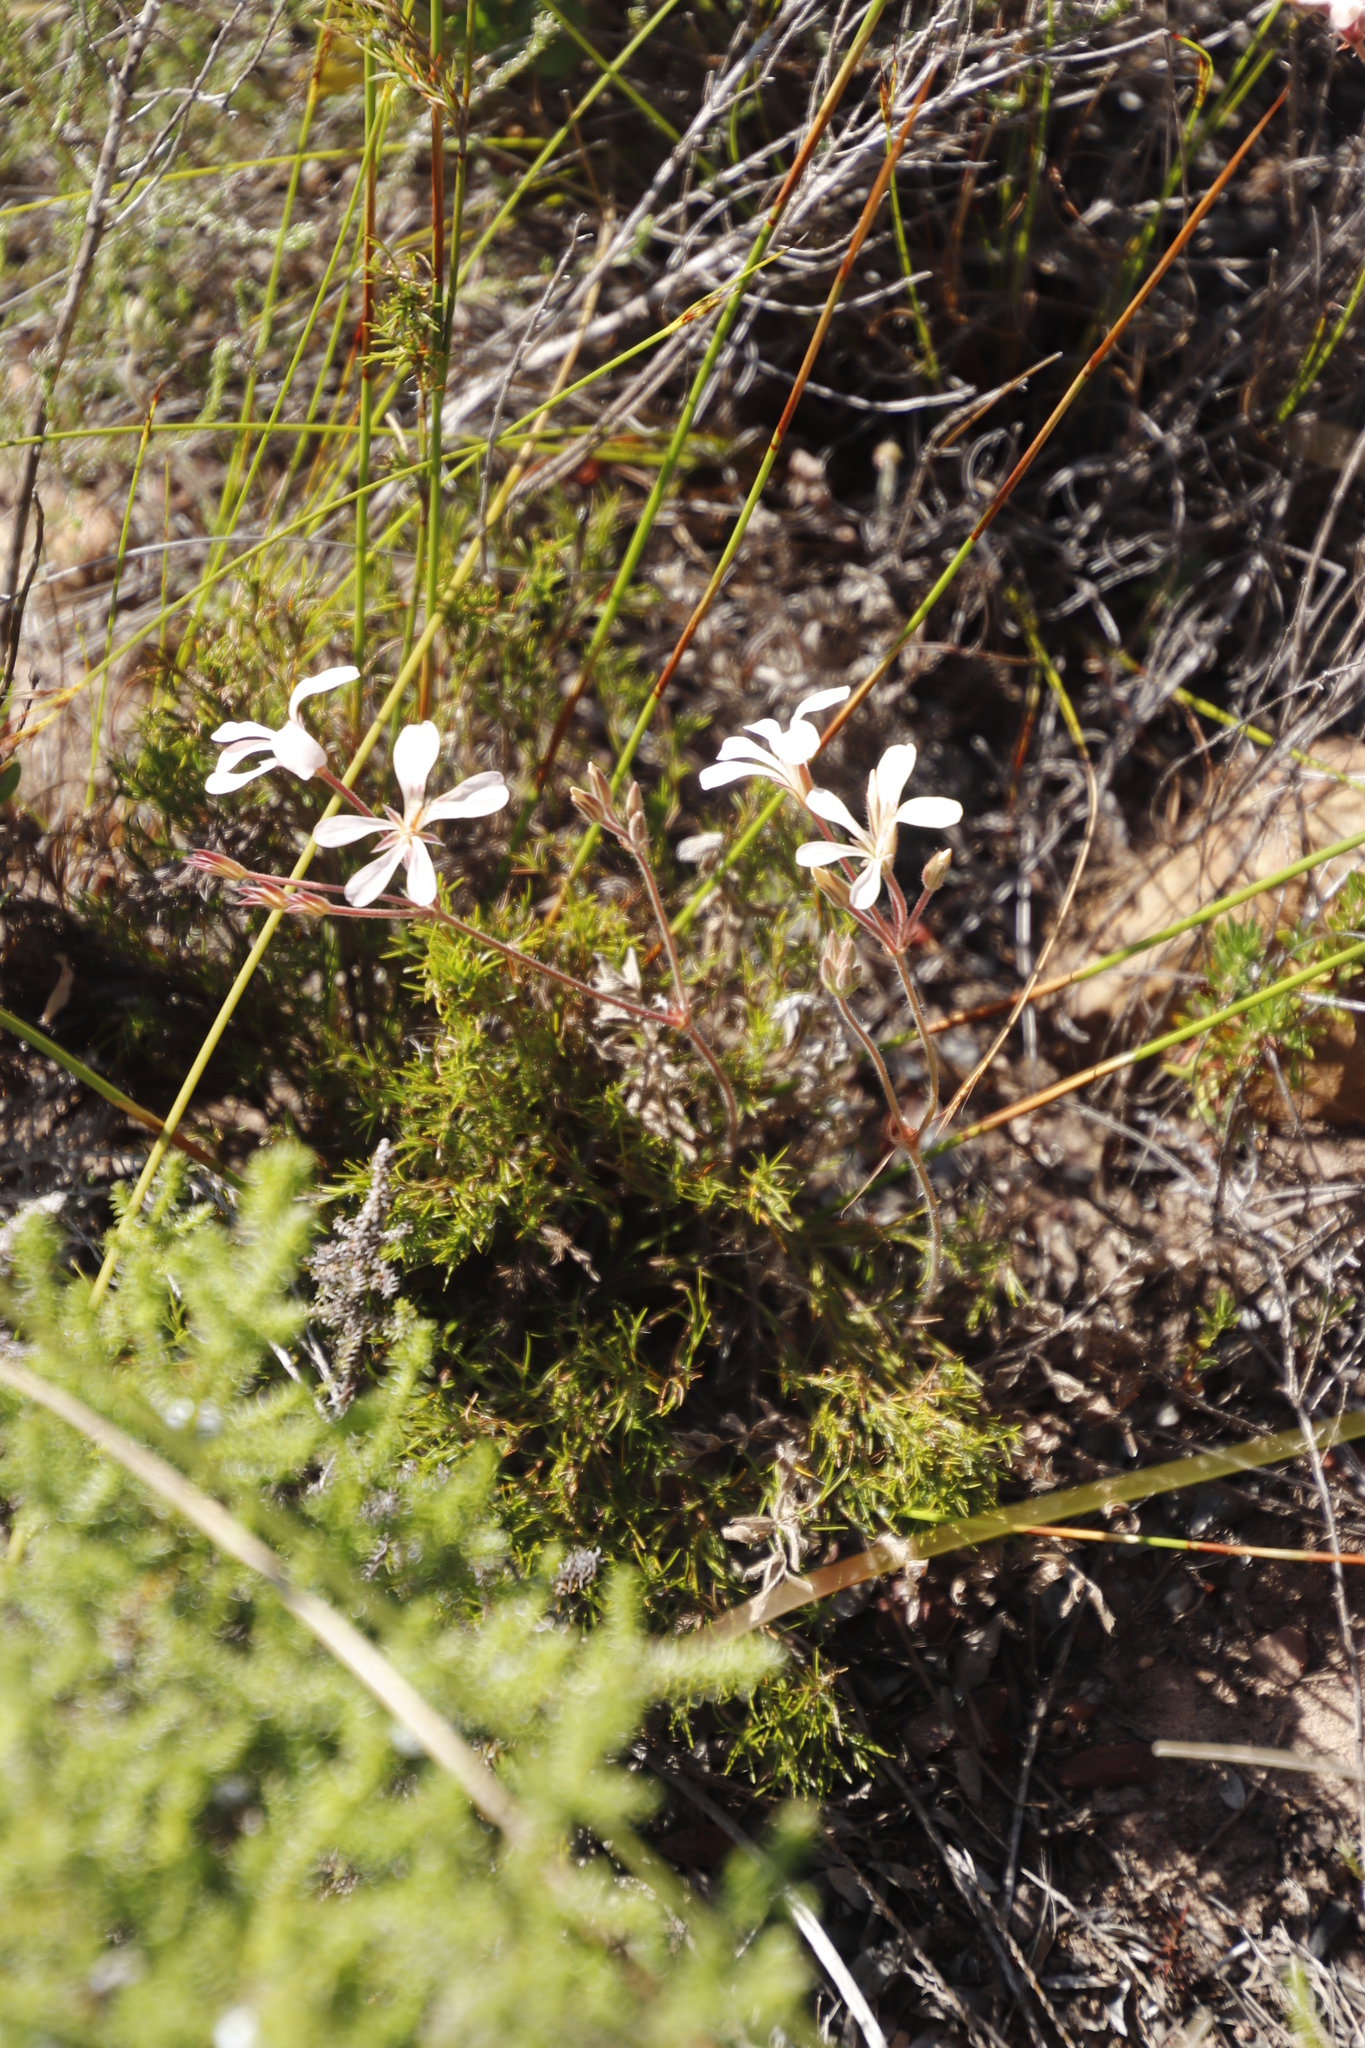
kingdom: Plantae
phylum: Tracheophyta
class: Magnoliopsida
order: Geraniales
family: Geraniaceae
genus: Pelargonium
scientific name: Pelargonium pinnatum
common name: Pinnated pelargonium
